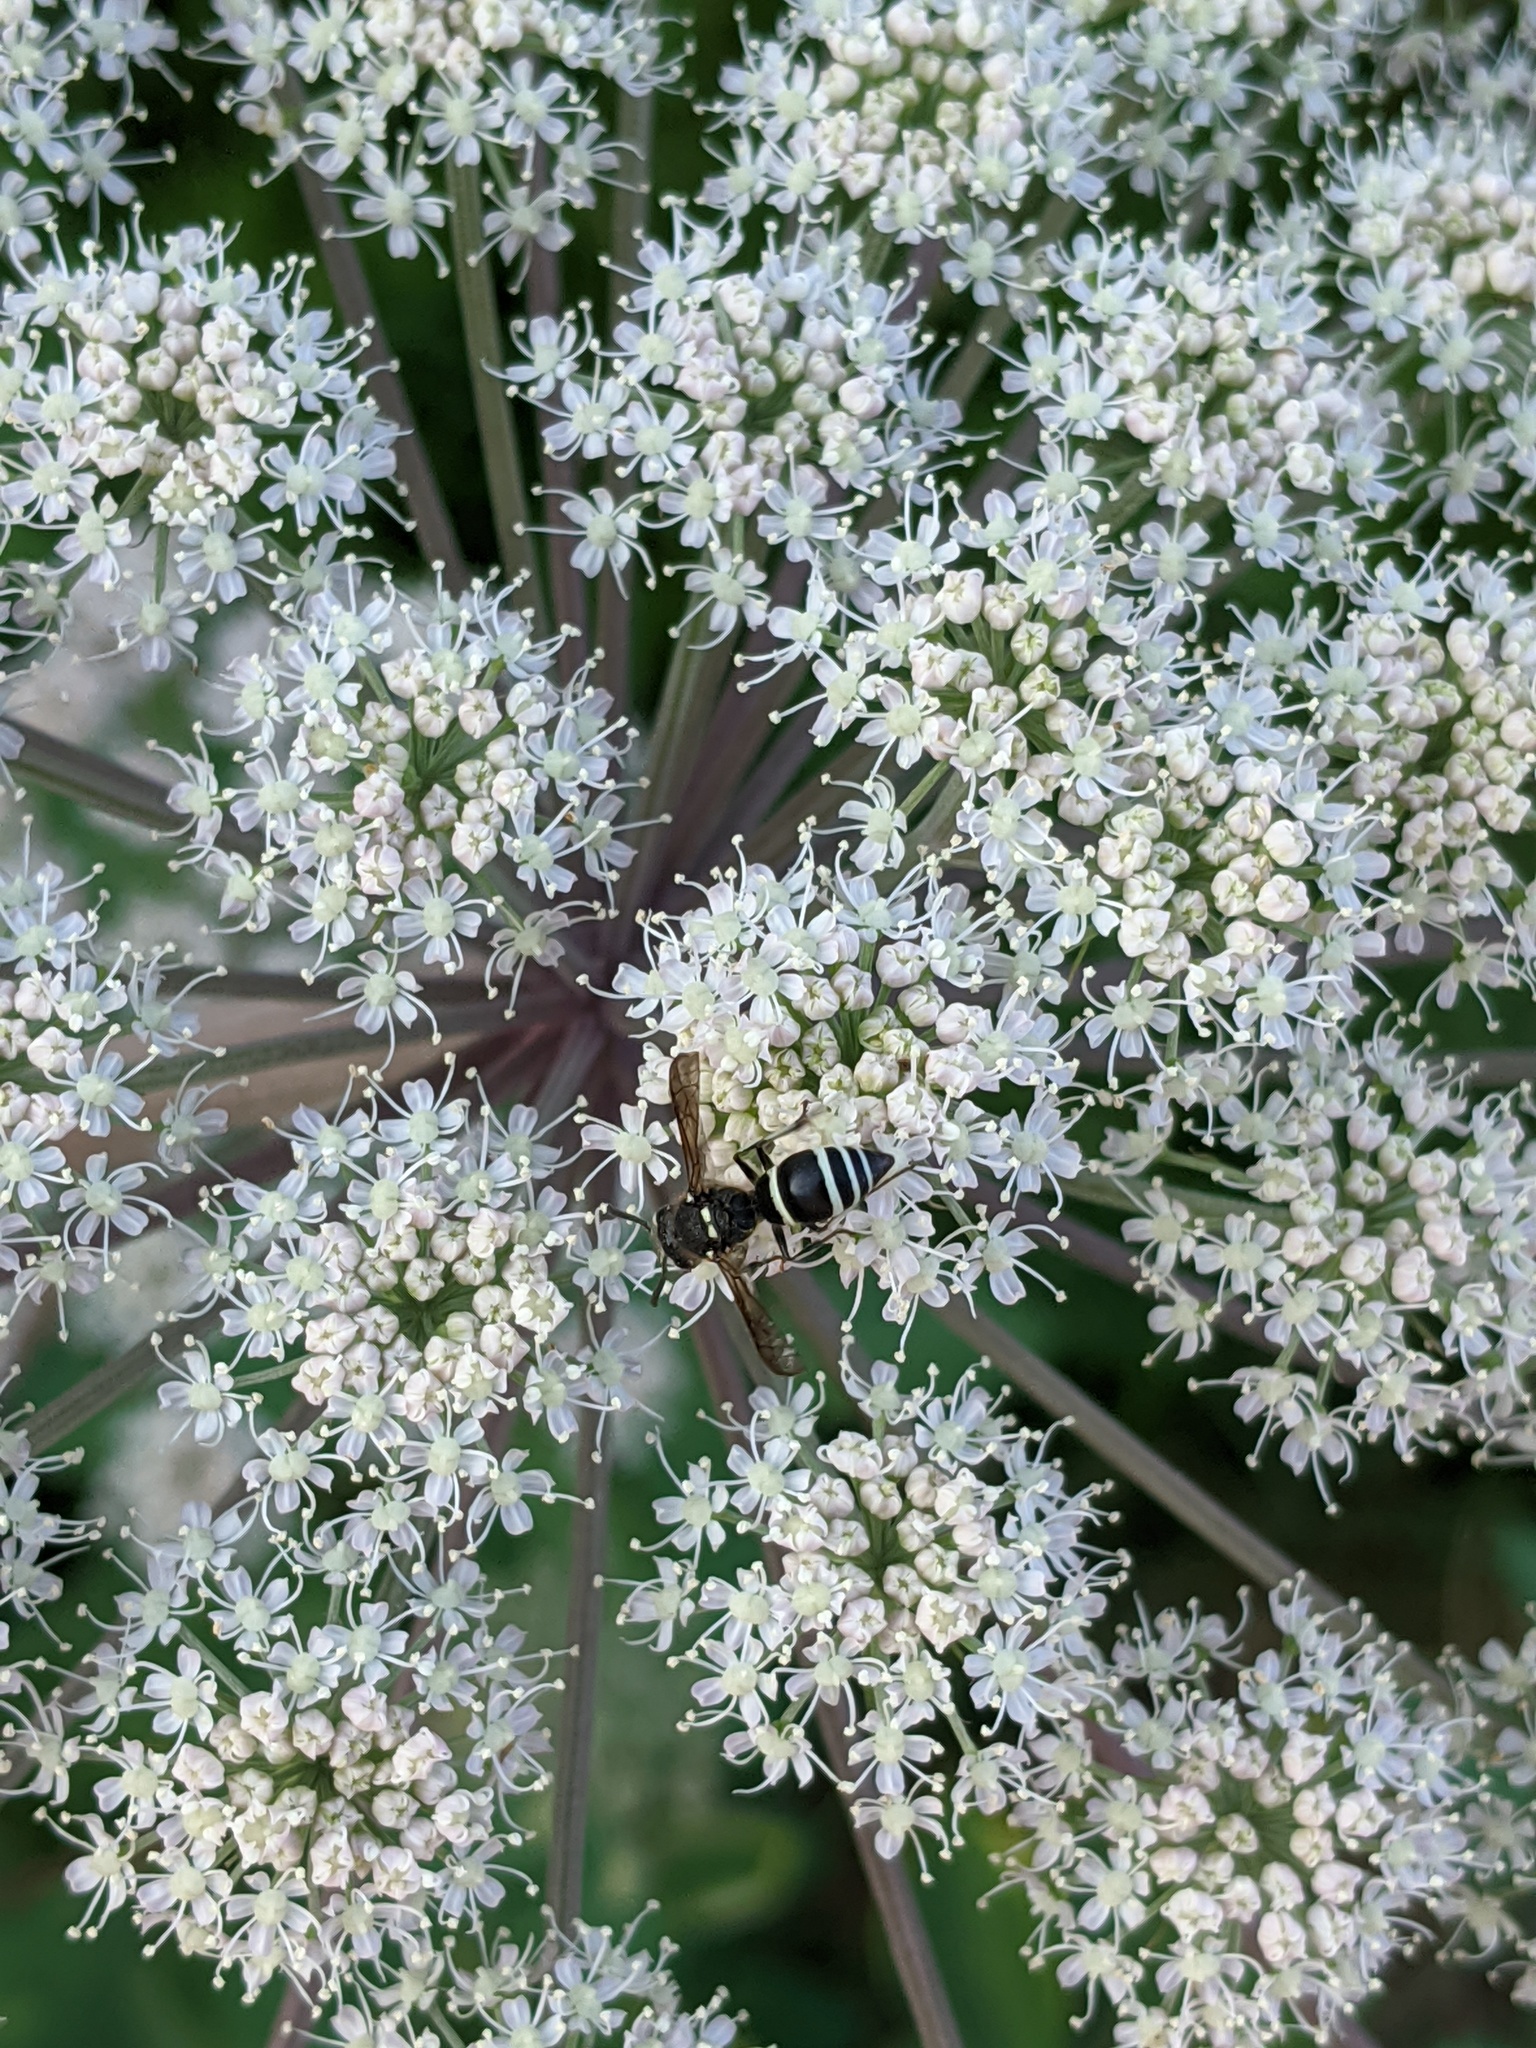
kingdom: Animalia
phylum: Arthropoda
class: Insecta
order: Hymenoptera
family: Vespidae
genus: Ancistrocerus
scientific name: Ancistrocerus albophaleratus
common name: White-banded potter wasp
